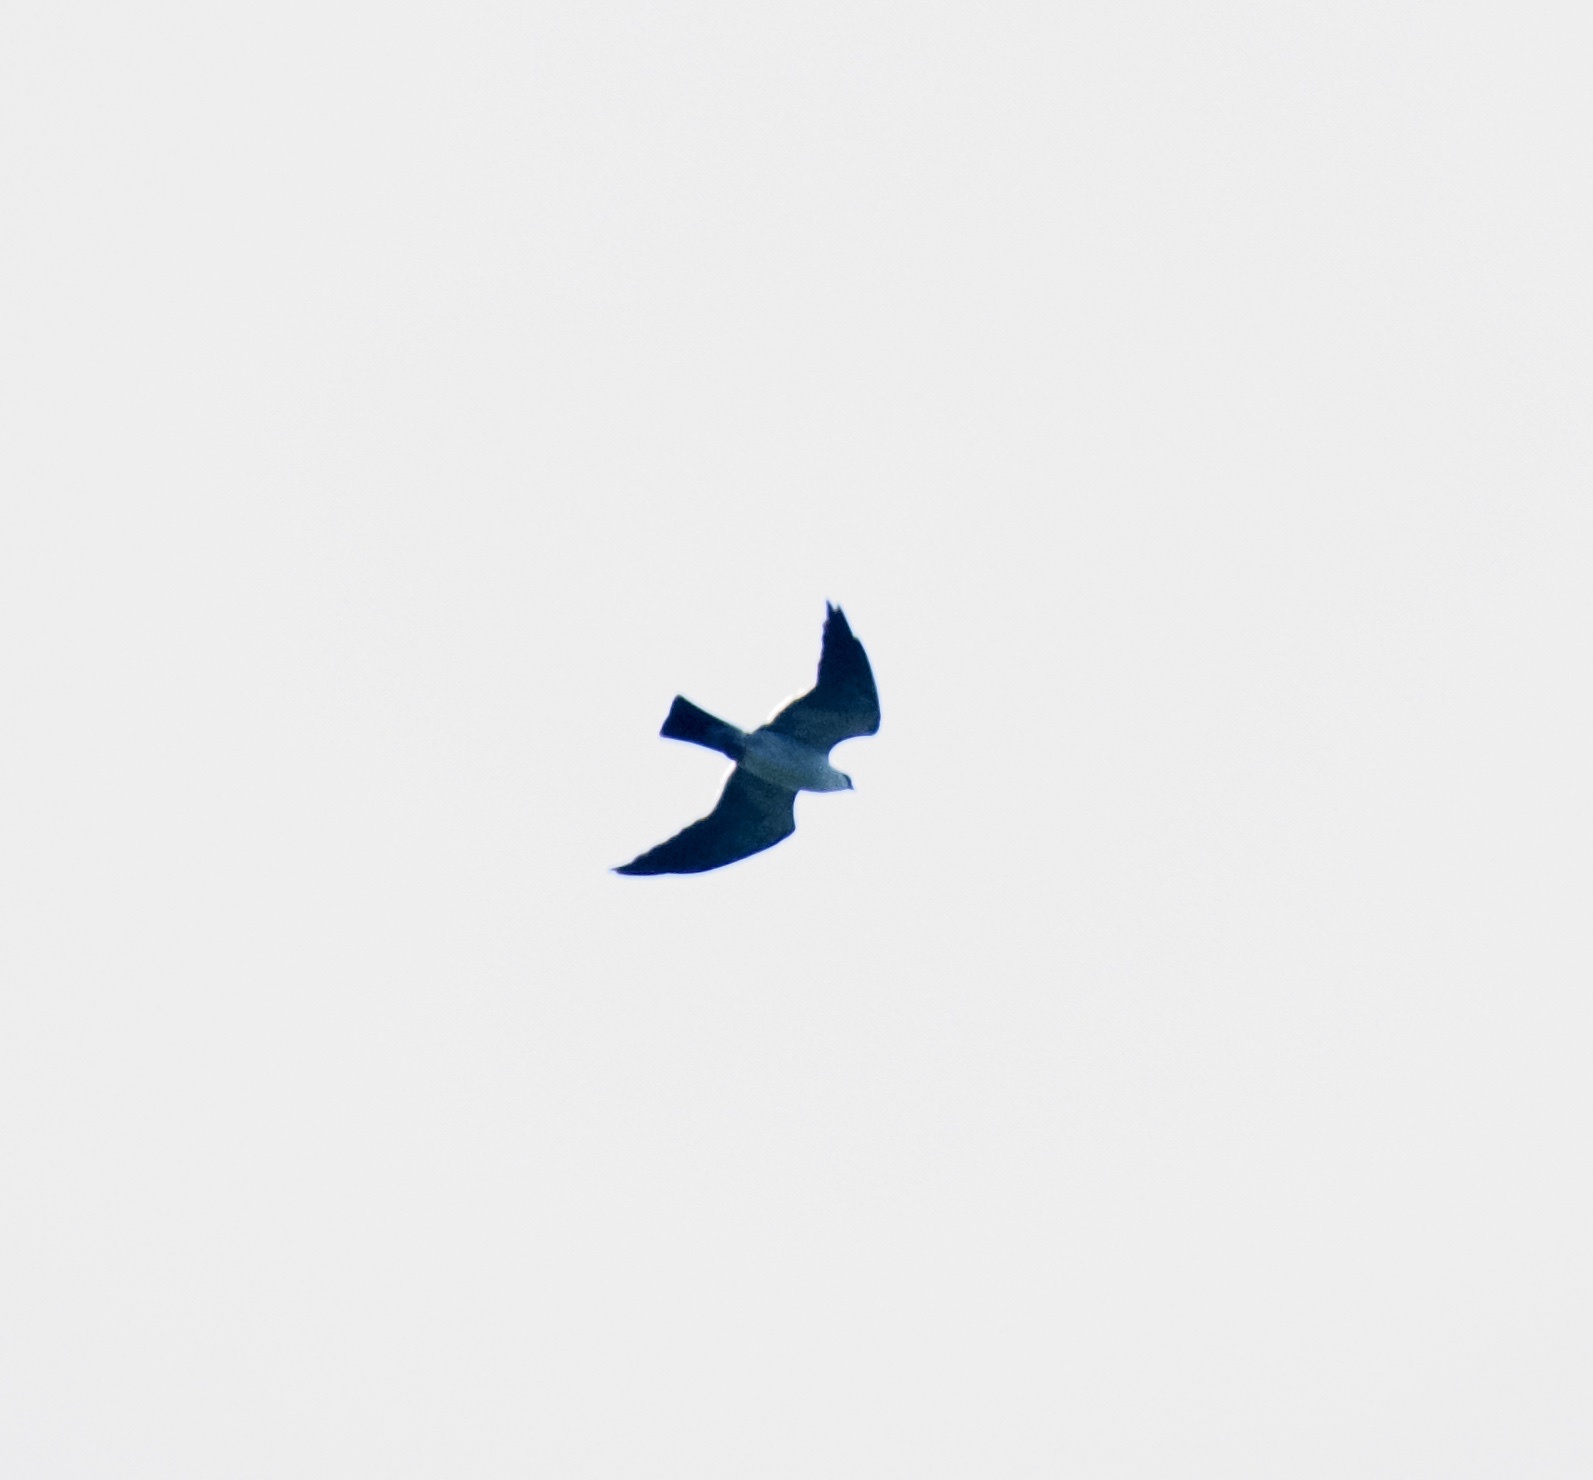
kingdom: Animalia
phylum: Chordata
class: Aves
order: Accipitriformes
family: Accipitridae
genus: Ictinia
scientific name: Ictinia mississippiensis
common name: Mississippi kite
